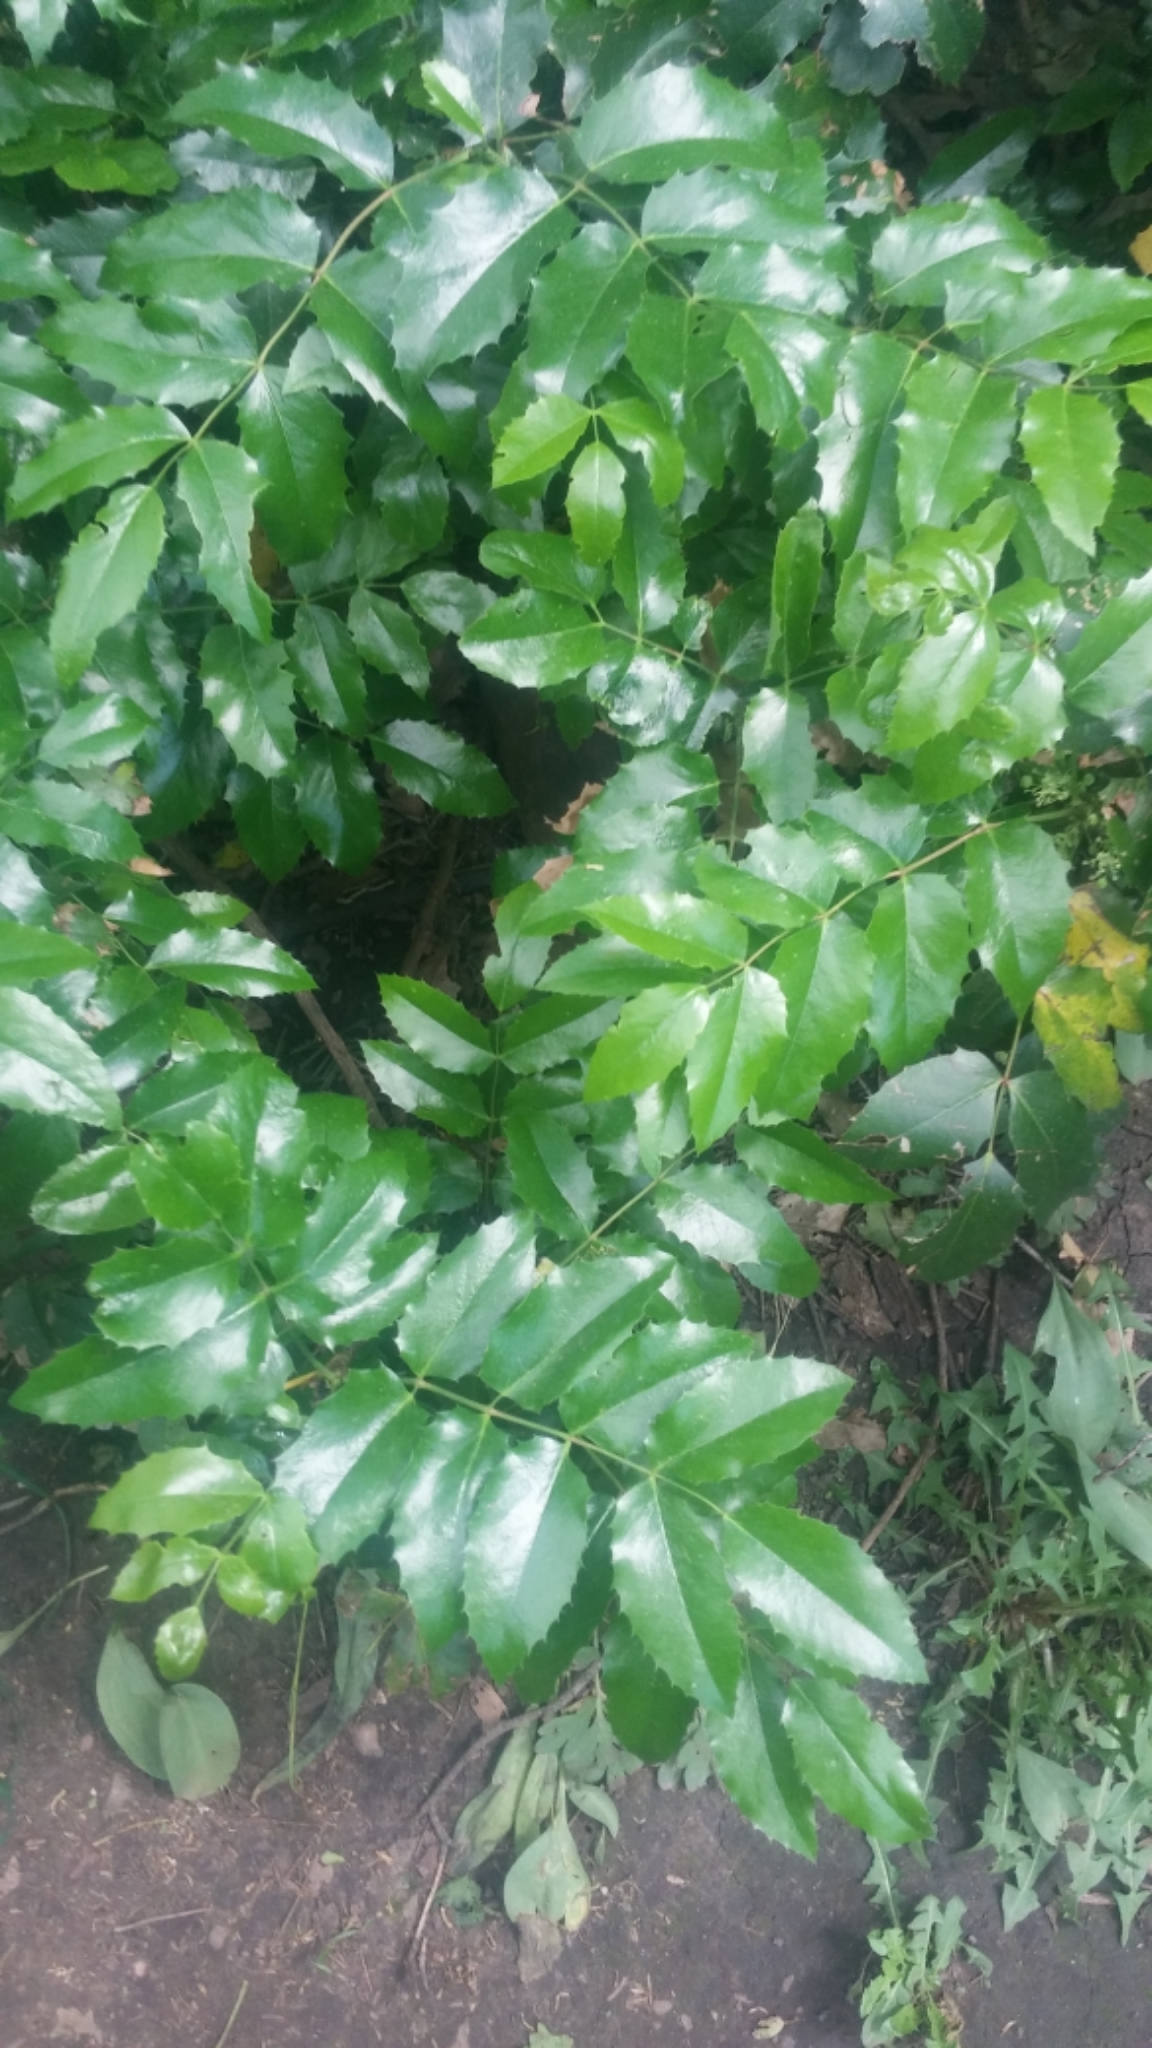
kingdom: Plantae
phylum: Tracheophyta
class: Magnoliopsida
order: Ranunculales
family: Berberidaceae
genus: Mahonia
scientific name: Mahonia aquifolium
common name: Oregon-grape
